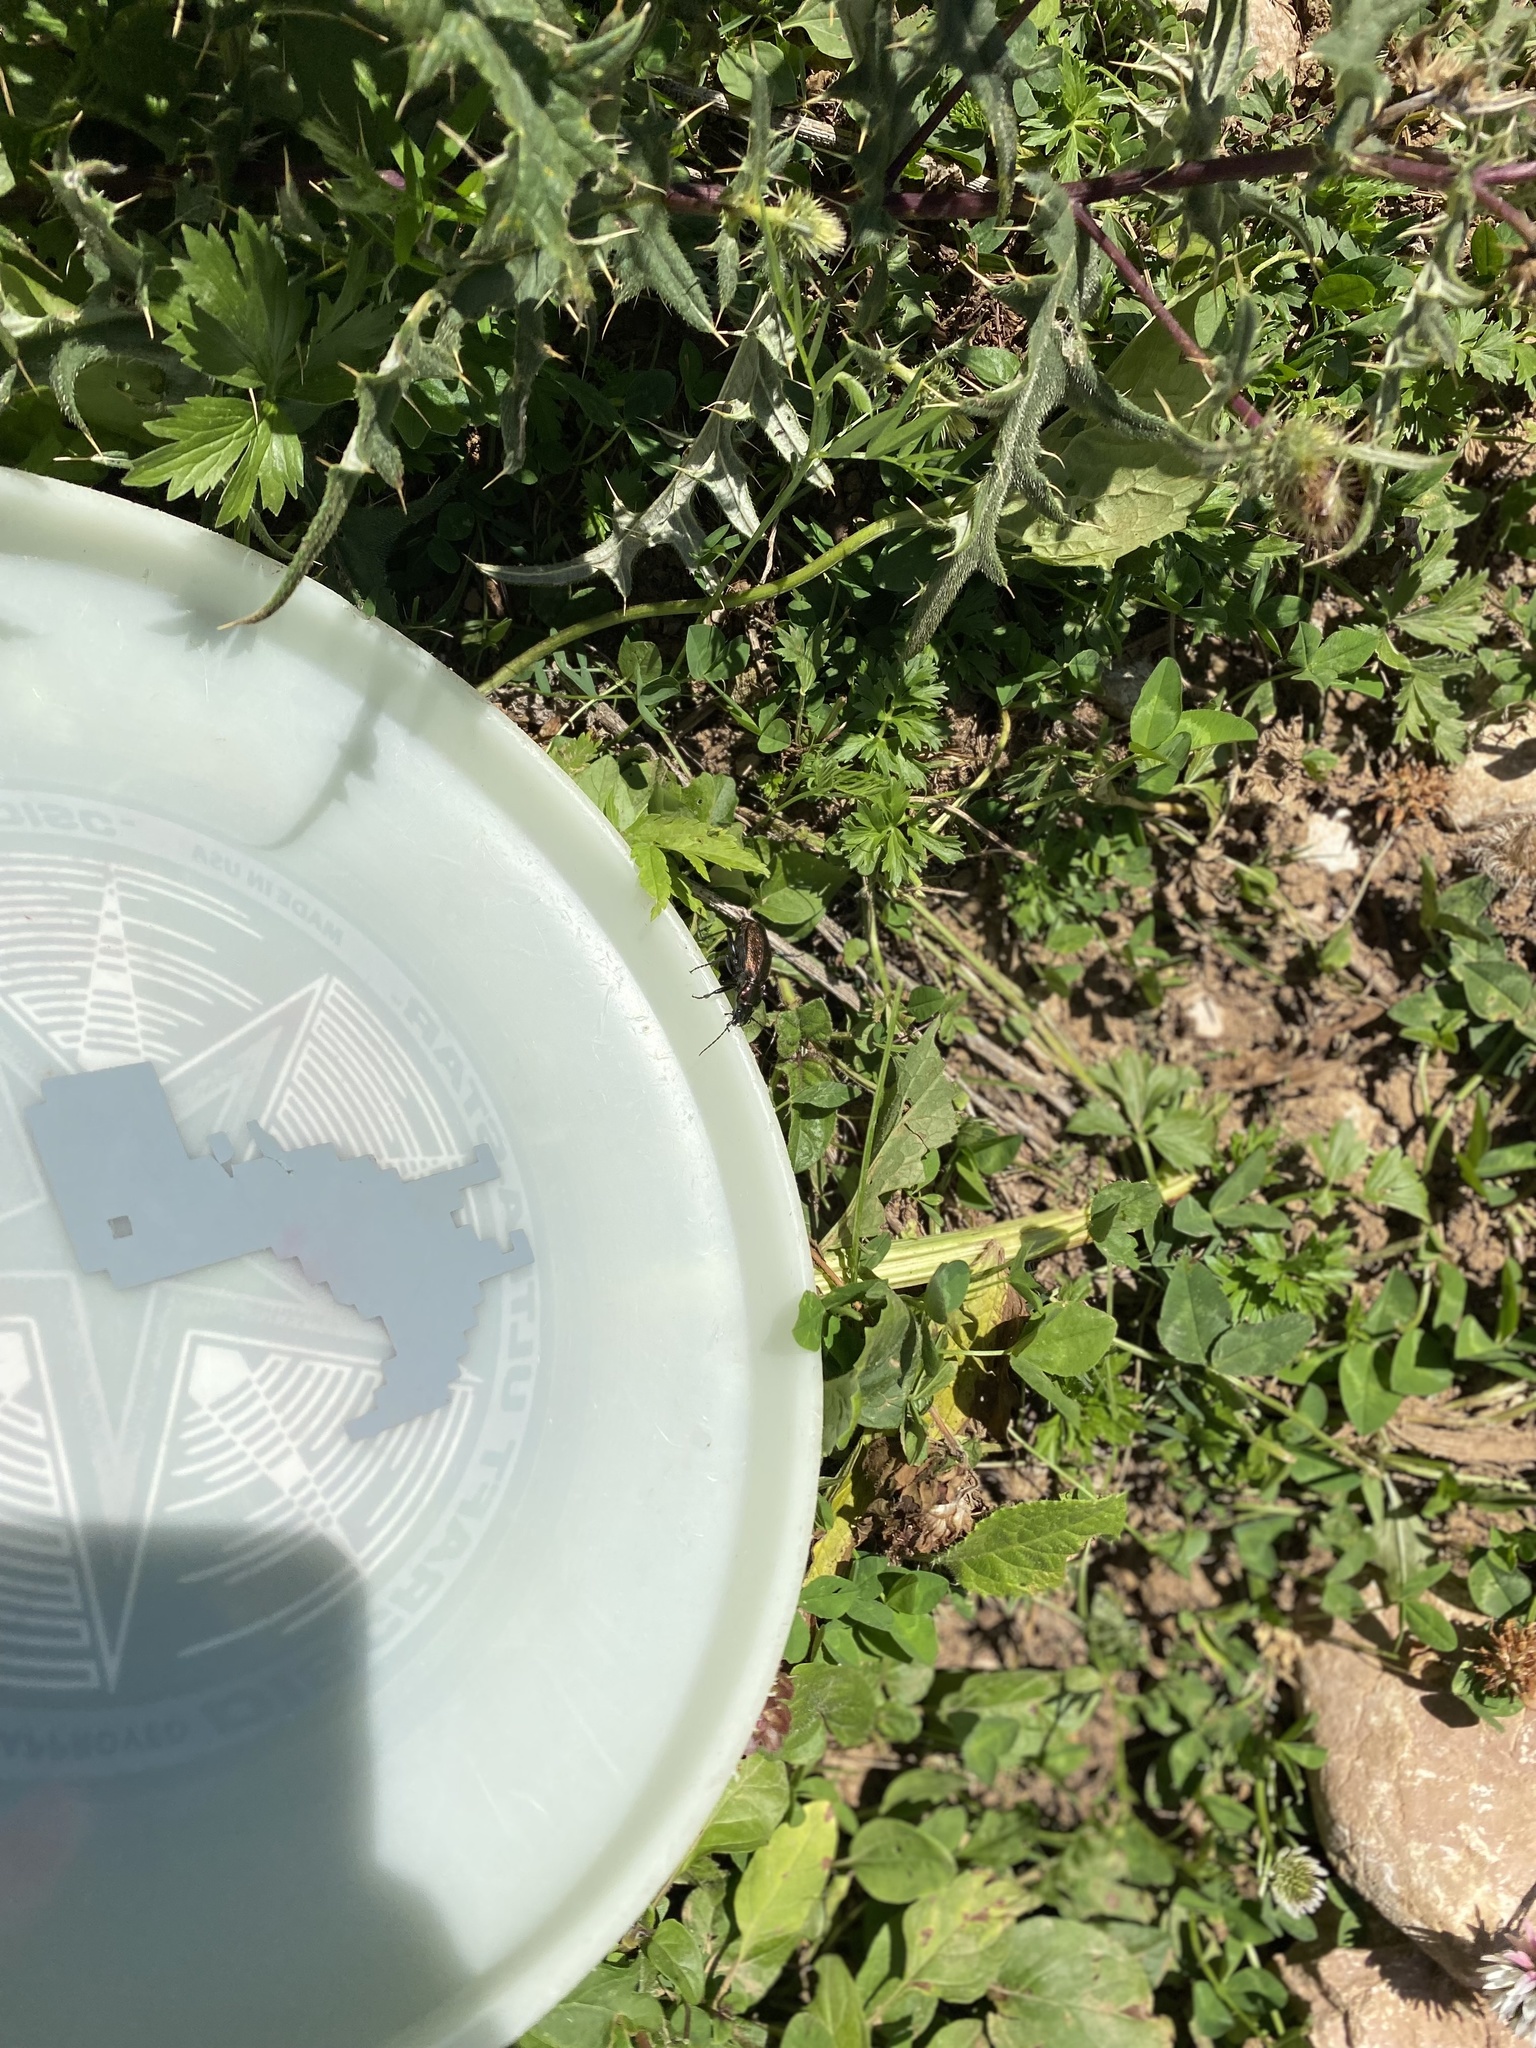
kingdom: Animalia
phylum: Arthropoda
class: Insecta
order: Coleoptera
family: Carabidae
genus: Carabus
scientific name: Carabus starcki
